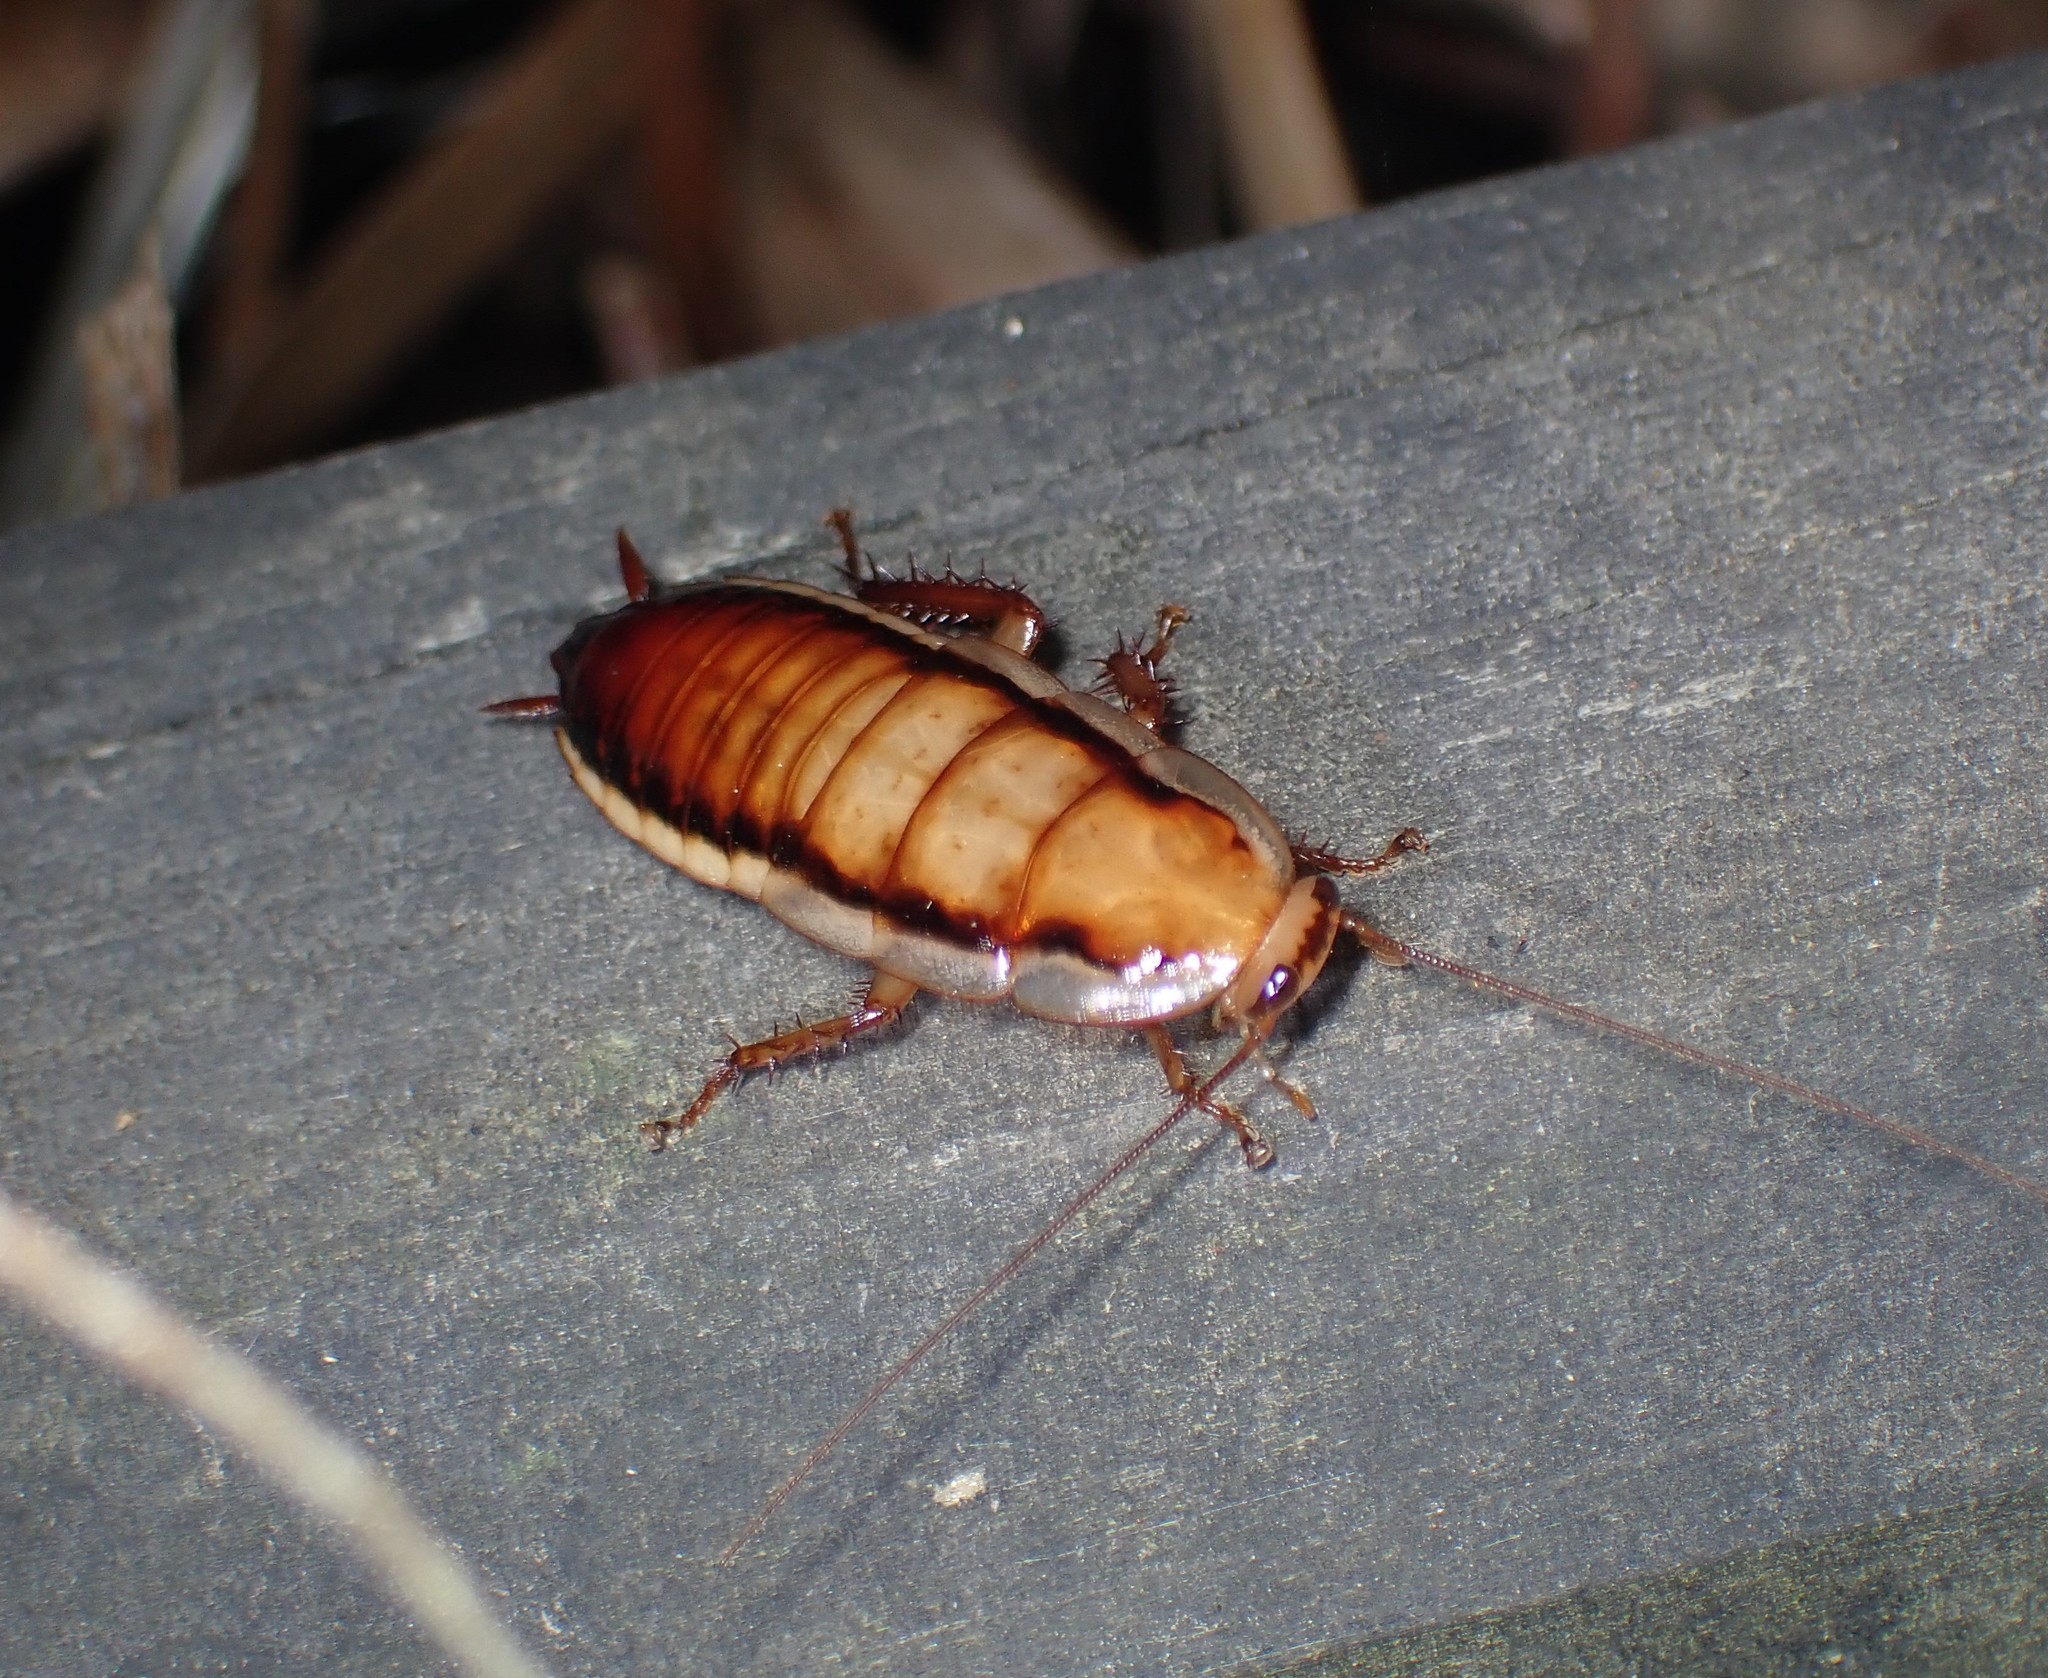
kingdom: Animalia
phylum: Arthropoda
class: Insecta
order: Blattodea
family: Blattidae
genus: Drymaplaneta
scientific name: Drymaplaneta heydeniana
